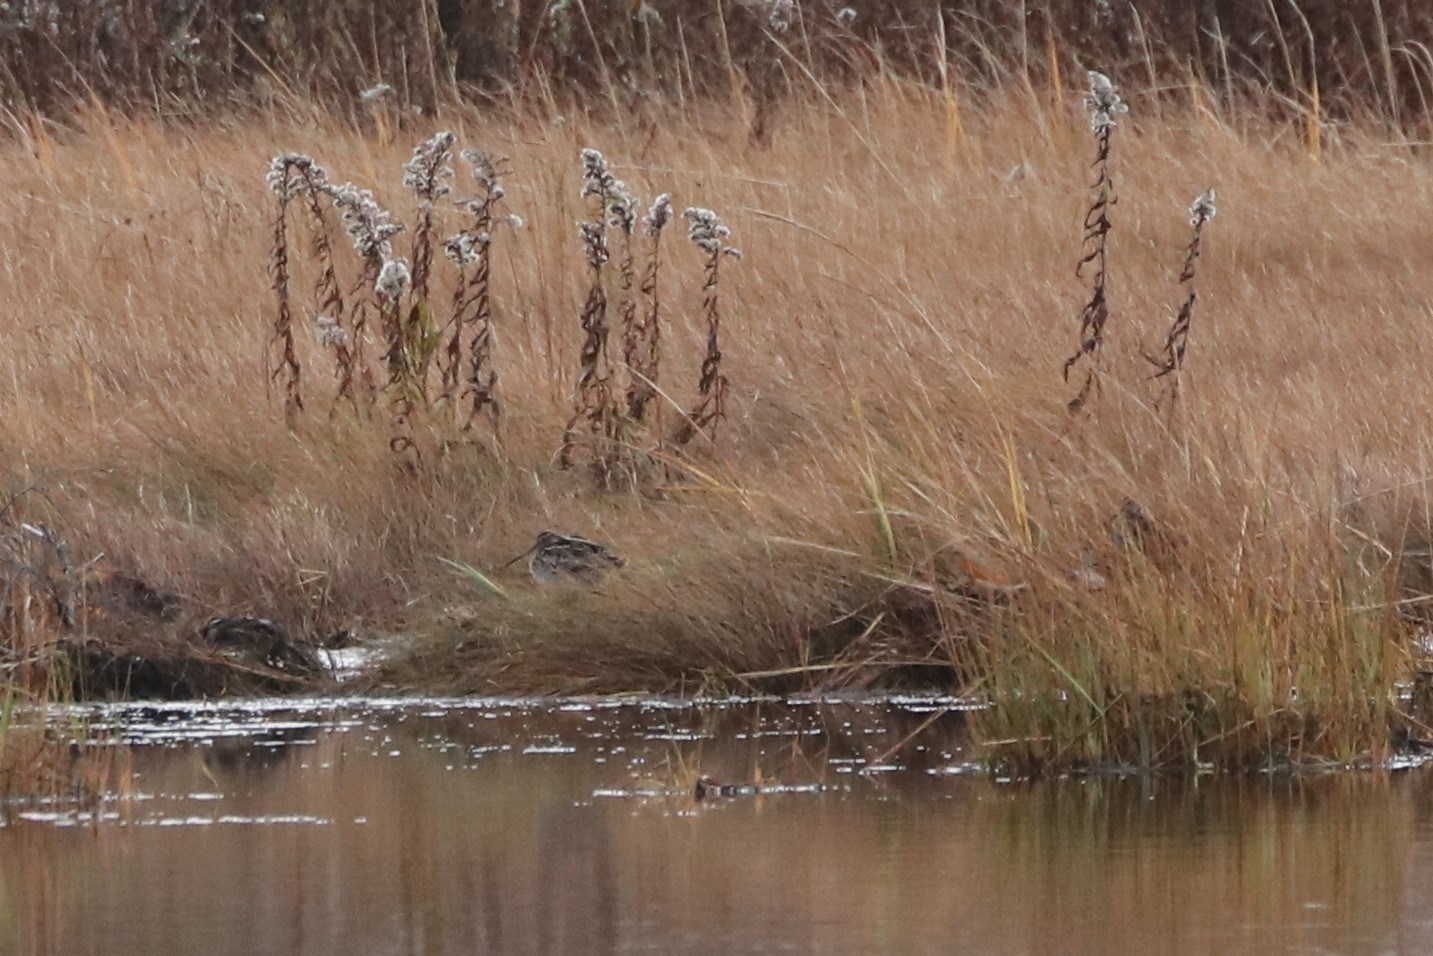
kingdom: Animalia
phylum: Chordata
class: Aves
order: Charadriiformes
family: Scolopacidae
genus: Gallinago
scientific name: Gallinago delicata
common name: Wilson's snipe
